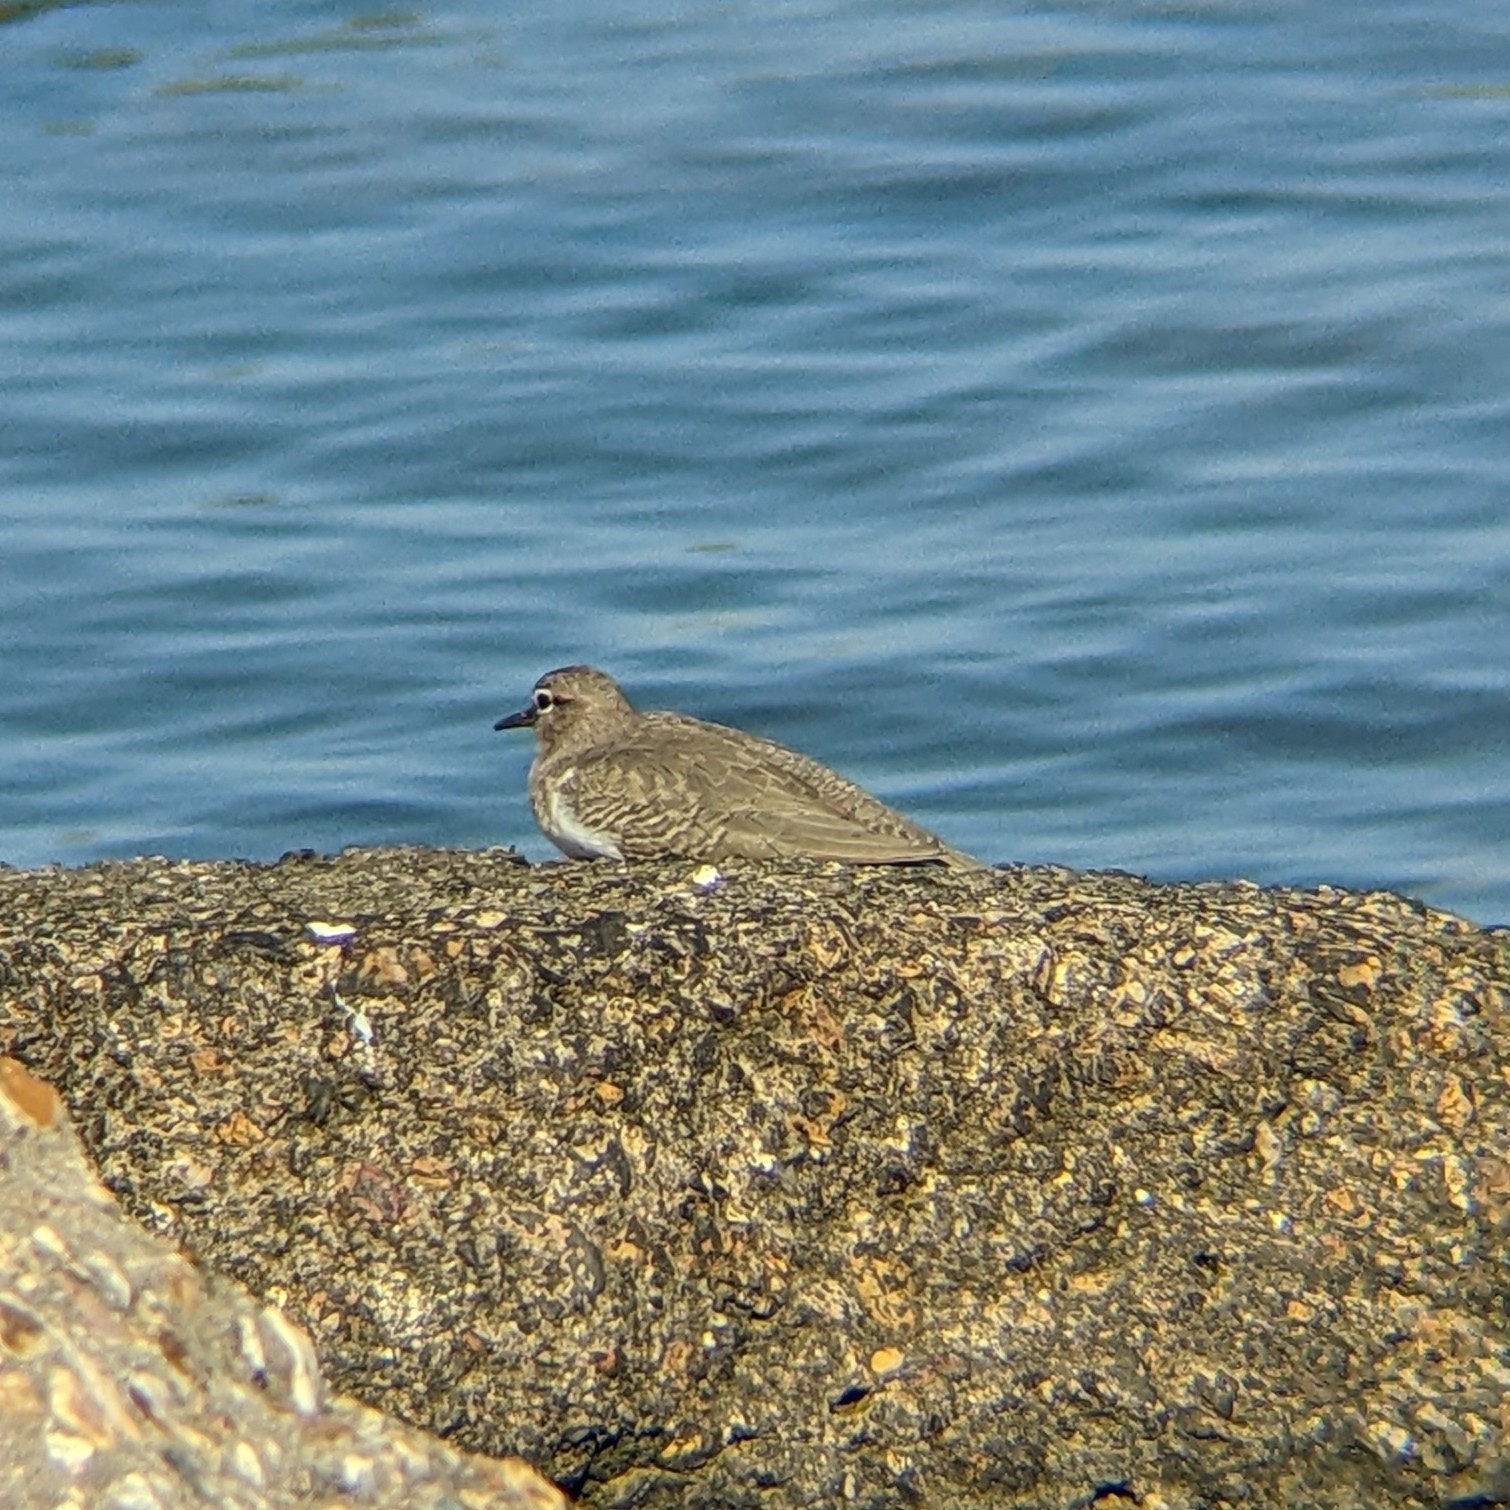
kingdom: Animalia
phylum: Chordata
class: Aves
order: Charadriiformes
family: Scolopacidae
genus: Actitis
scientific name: Actitis macularius
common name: Spotted sandpiper
